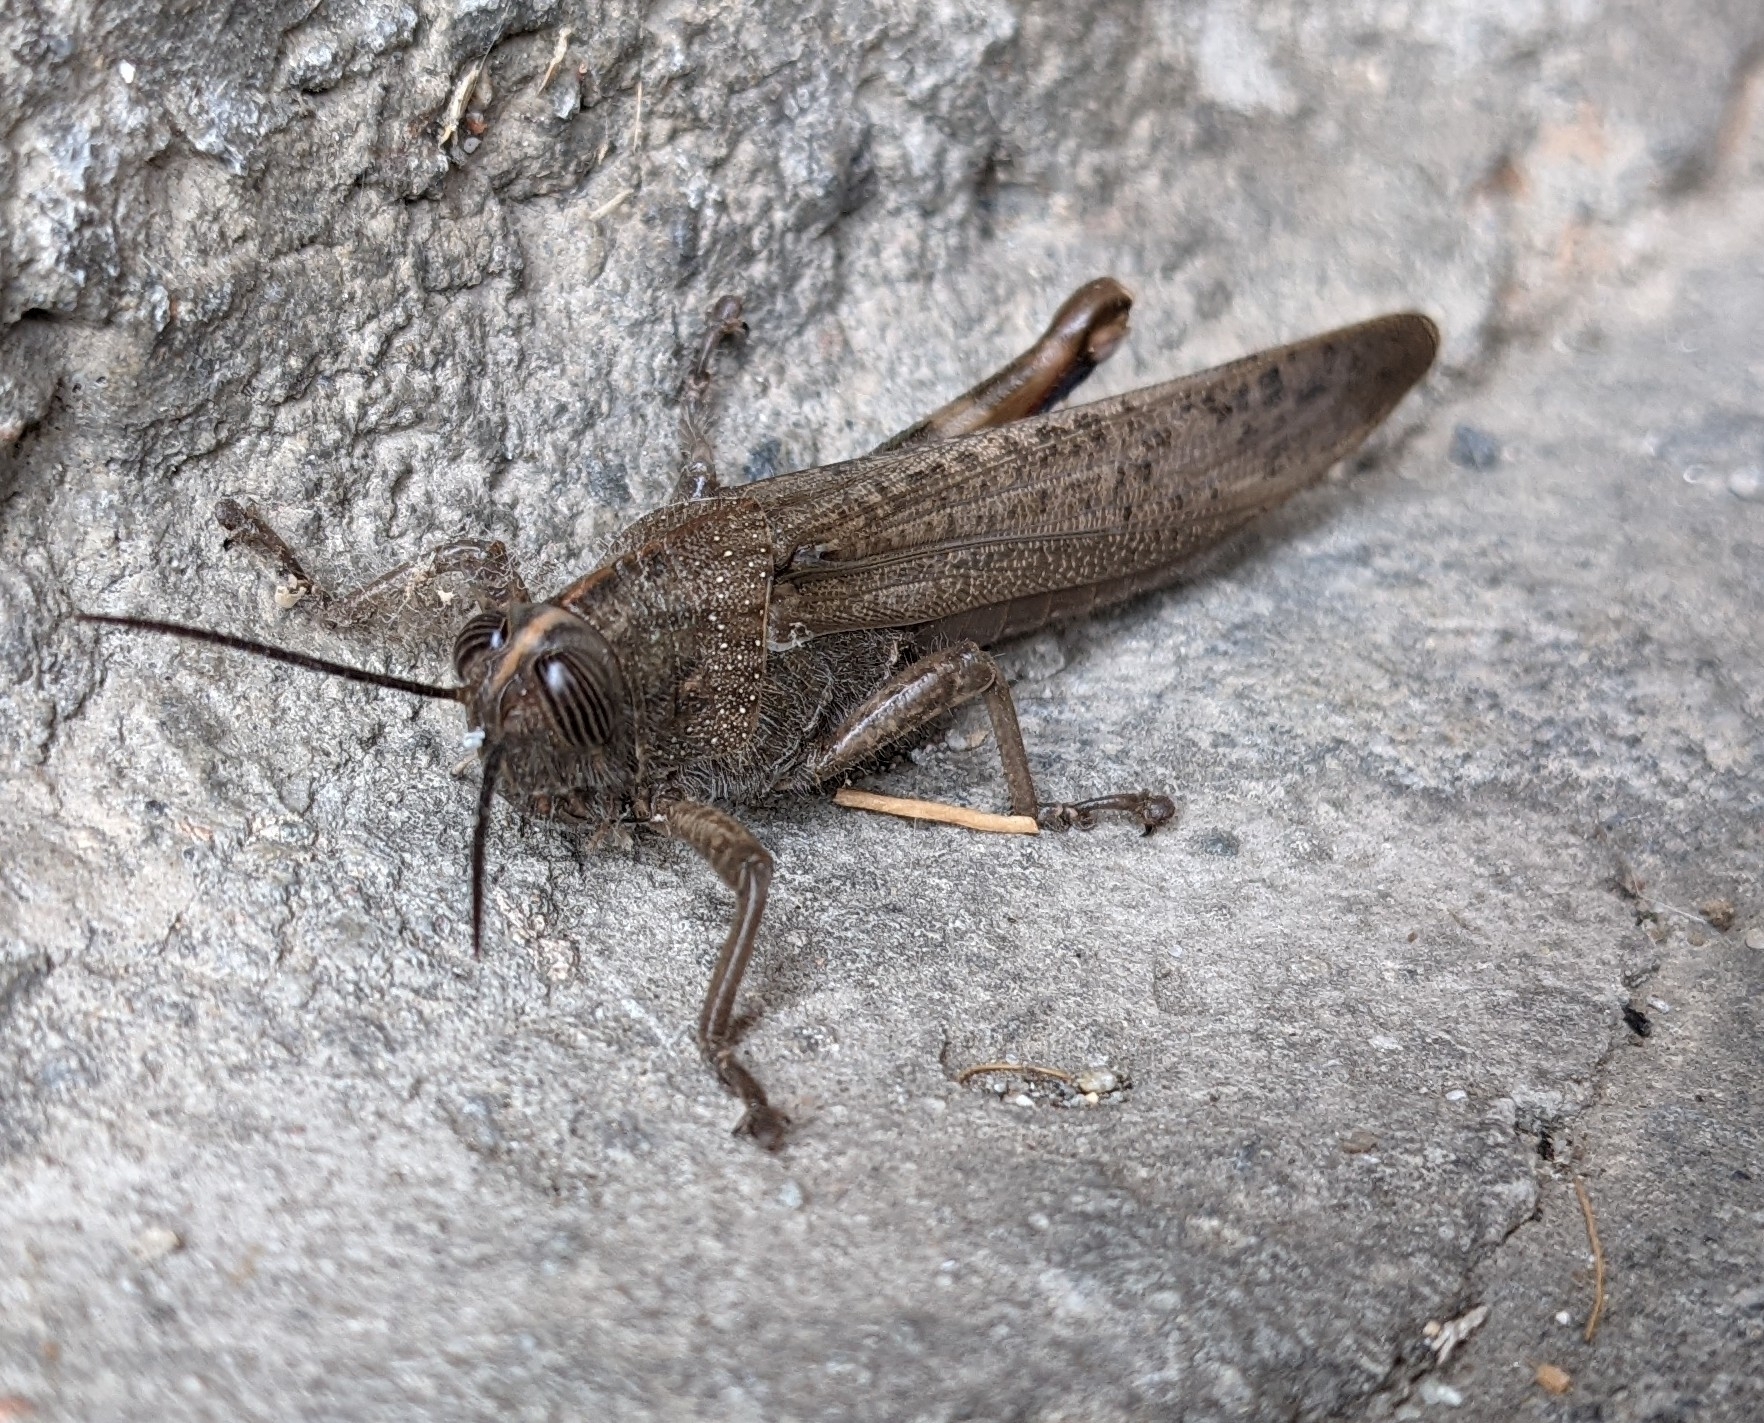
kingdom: Animalia
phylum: Arthropoda
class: Insecta
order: Orthoptera
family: Acrididae
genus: Anacridium
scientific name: Anacridium aegyptium
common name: Egyptian grasshopper
